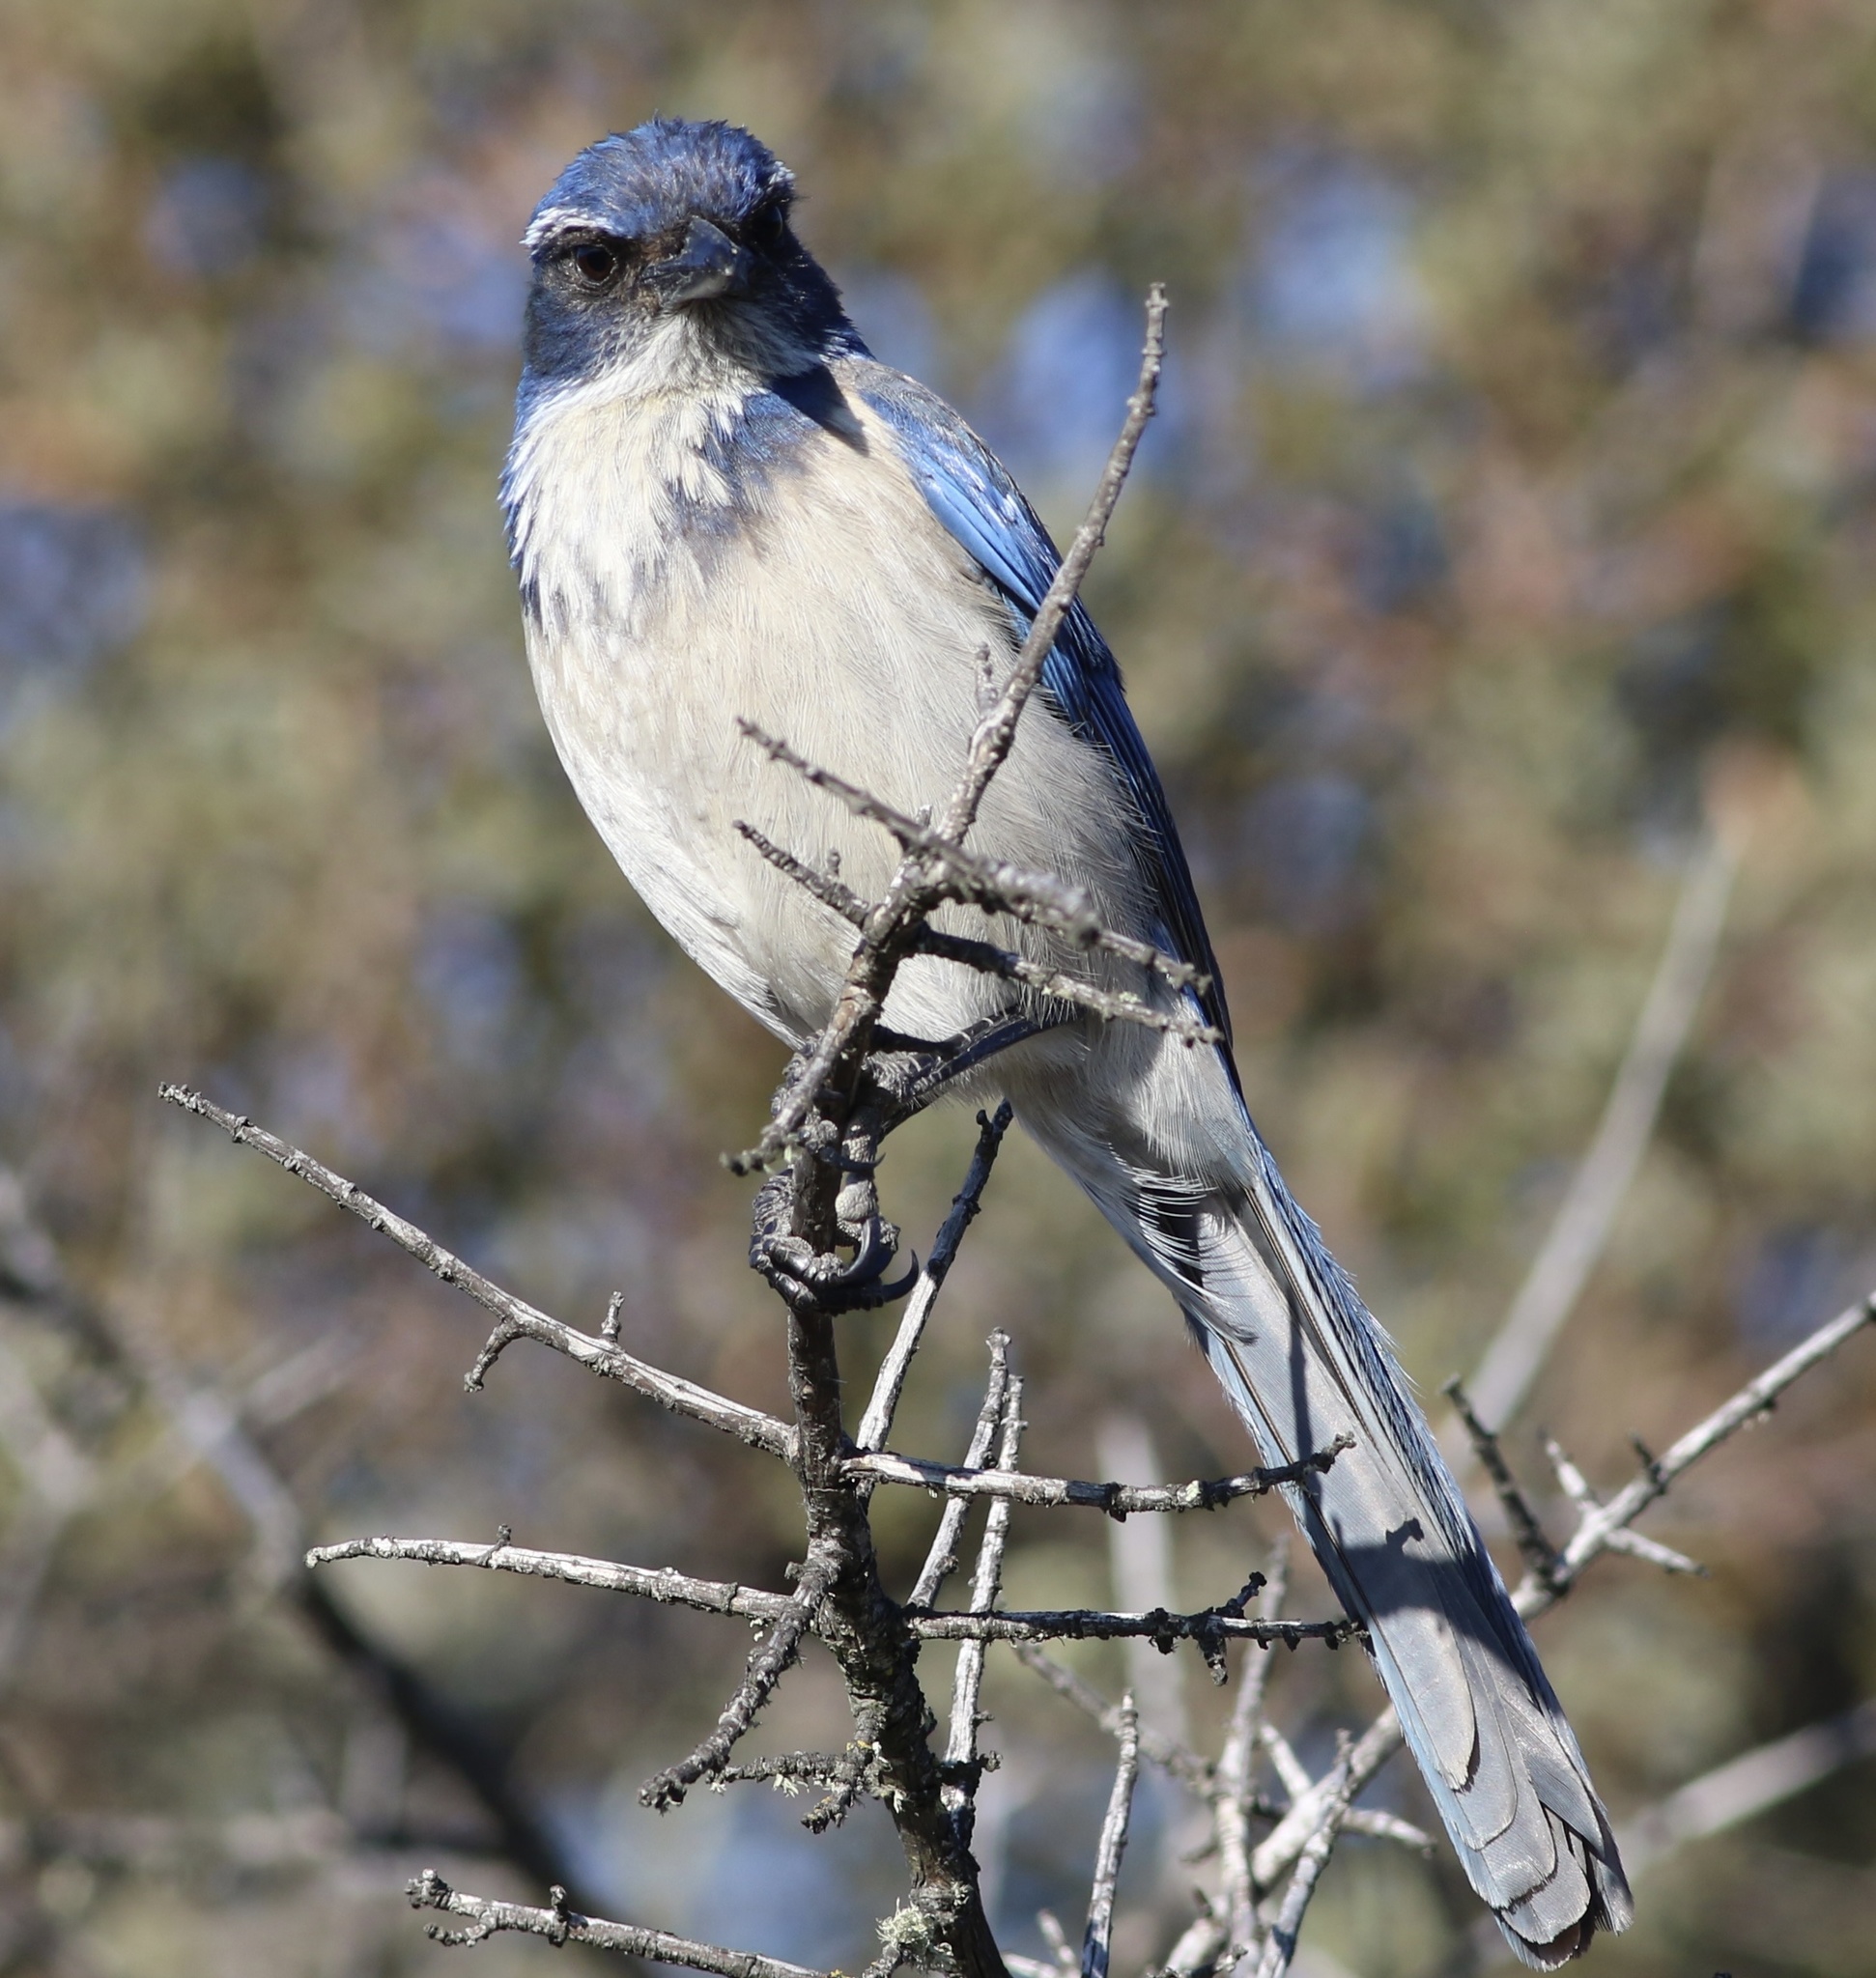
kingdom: Animalia
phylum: Chordata
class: Aves
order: Passeriformes
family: Corvidae
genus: Aphelocoma
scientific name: Aphelocoma californica
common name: California scrub-jay
